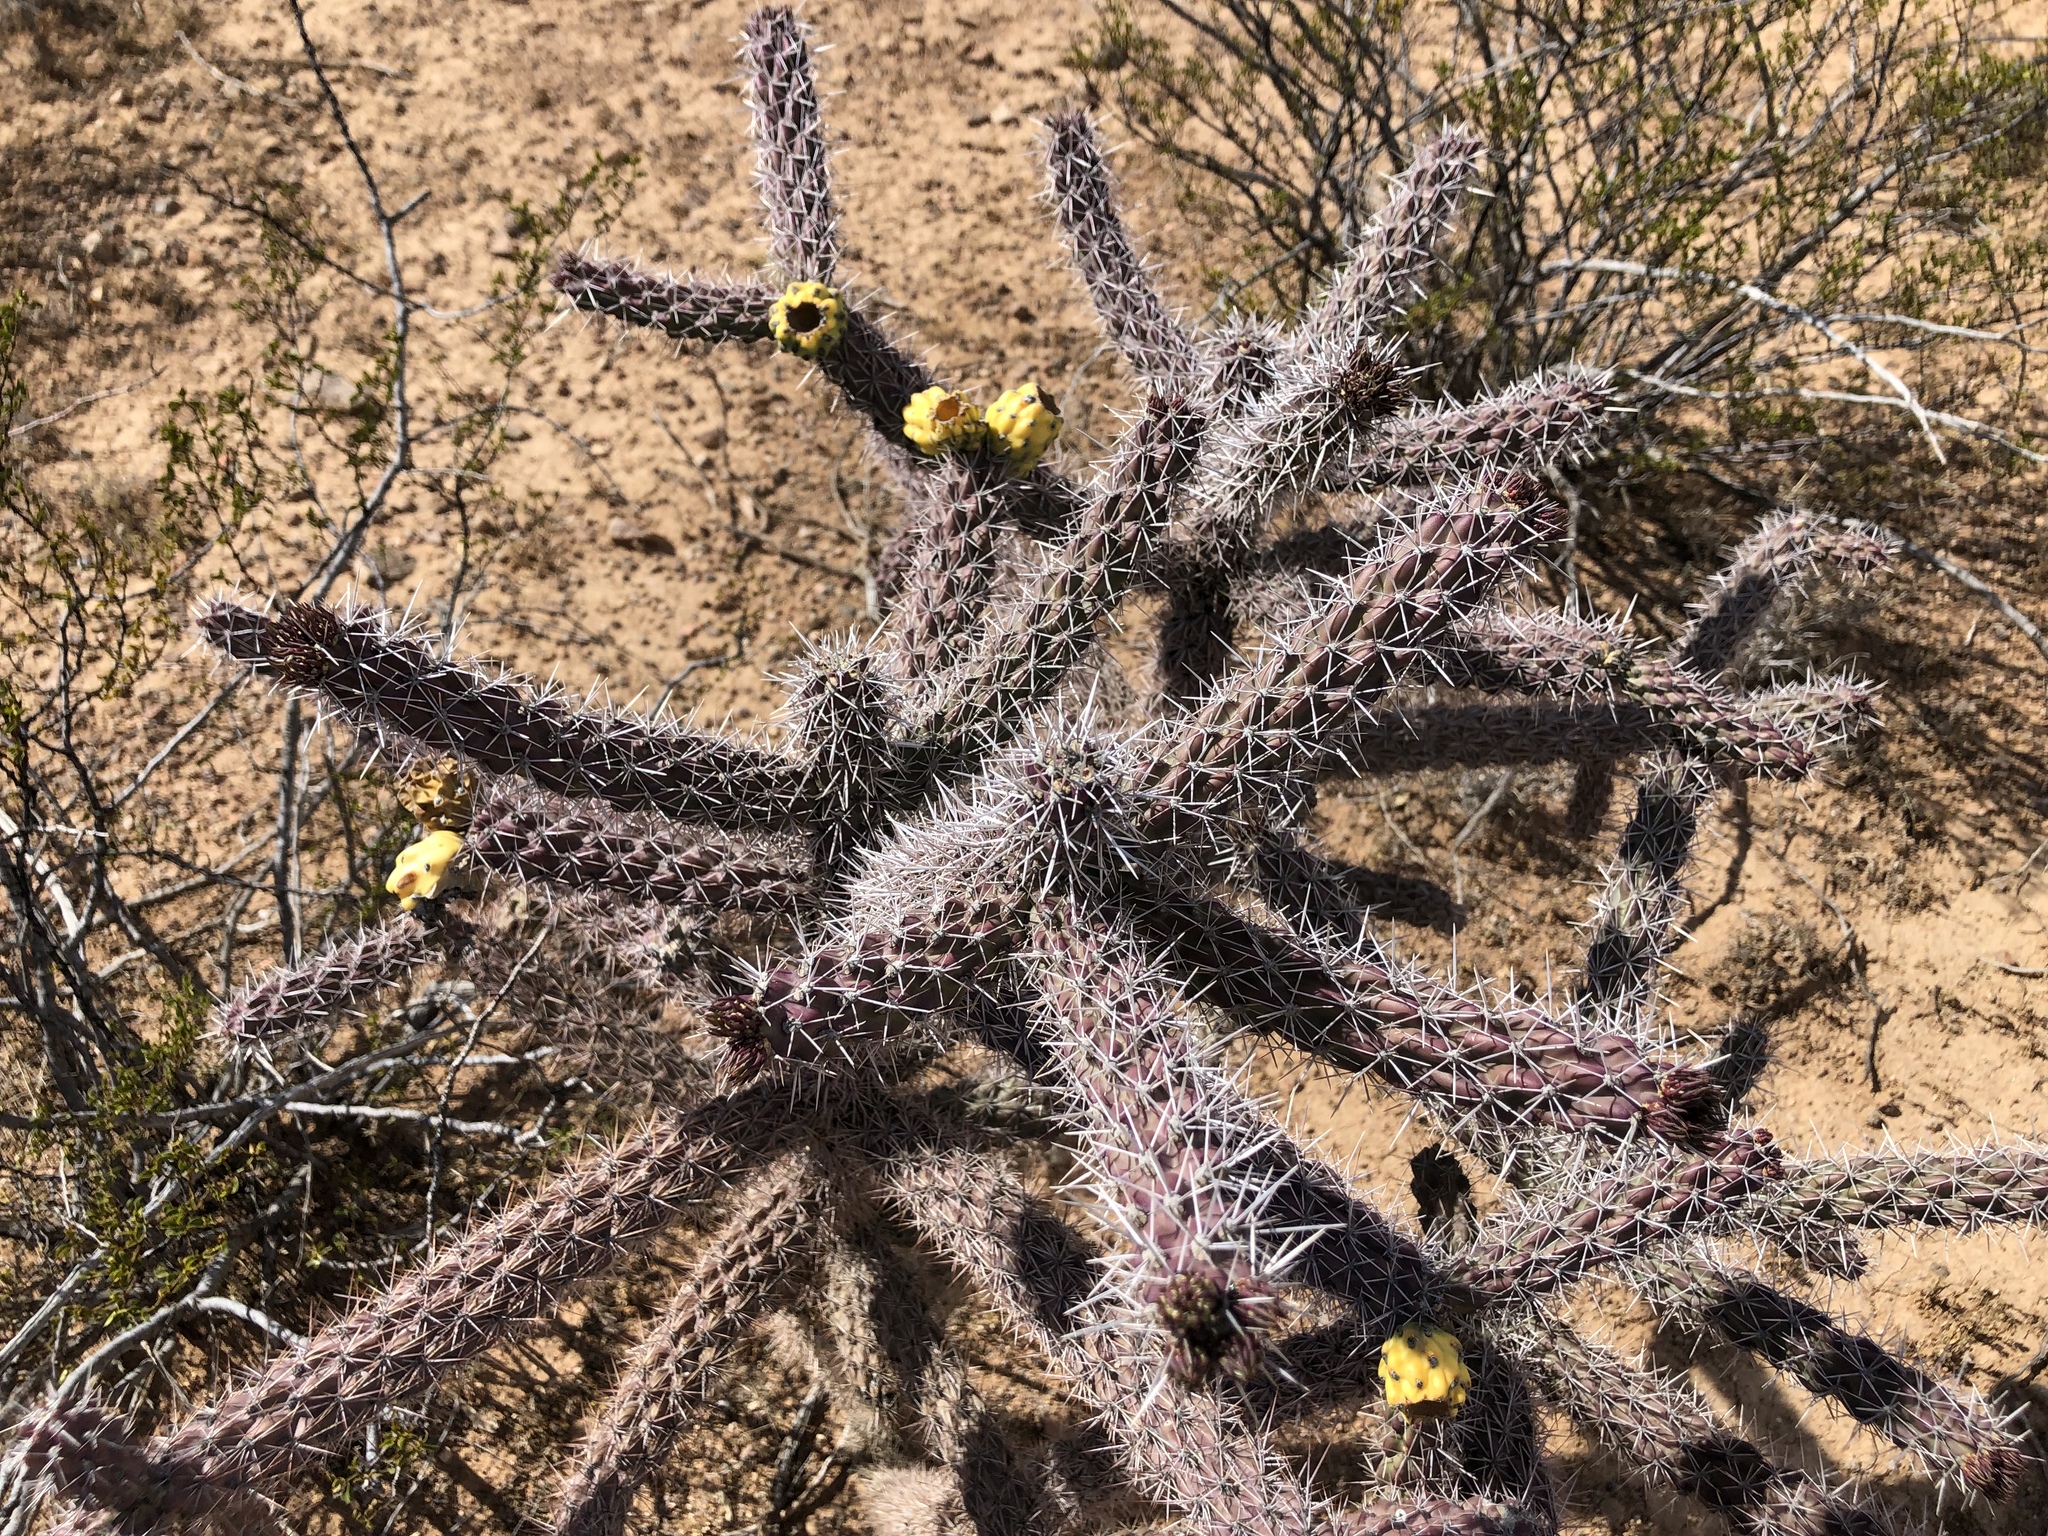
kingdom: Plantae
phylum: Tracheophyta
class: Magnoliopsida
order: Caryophyllales
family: Cactaceae
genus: Cylindropuntia
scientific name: Cylindropuntia imbricata
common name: Candelabrum cactus
